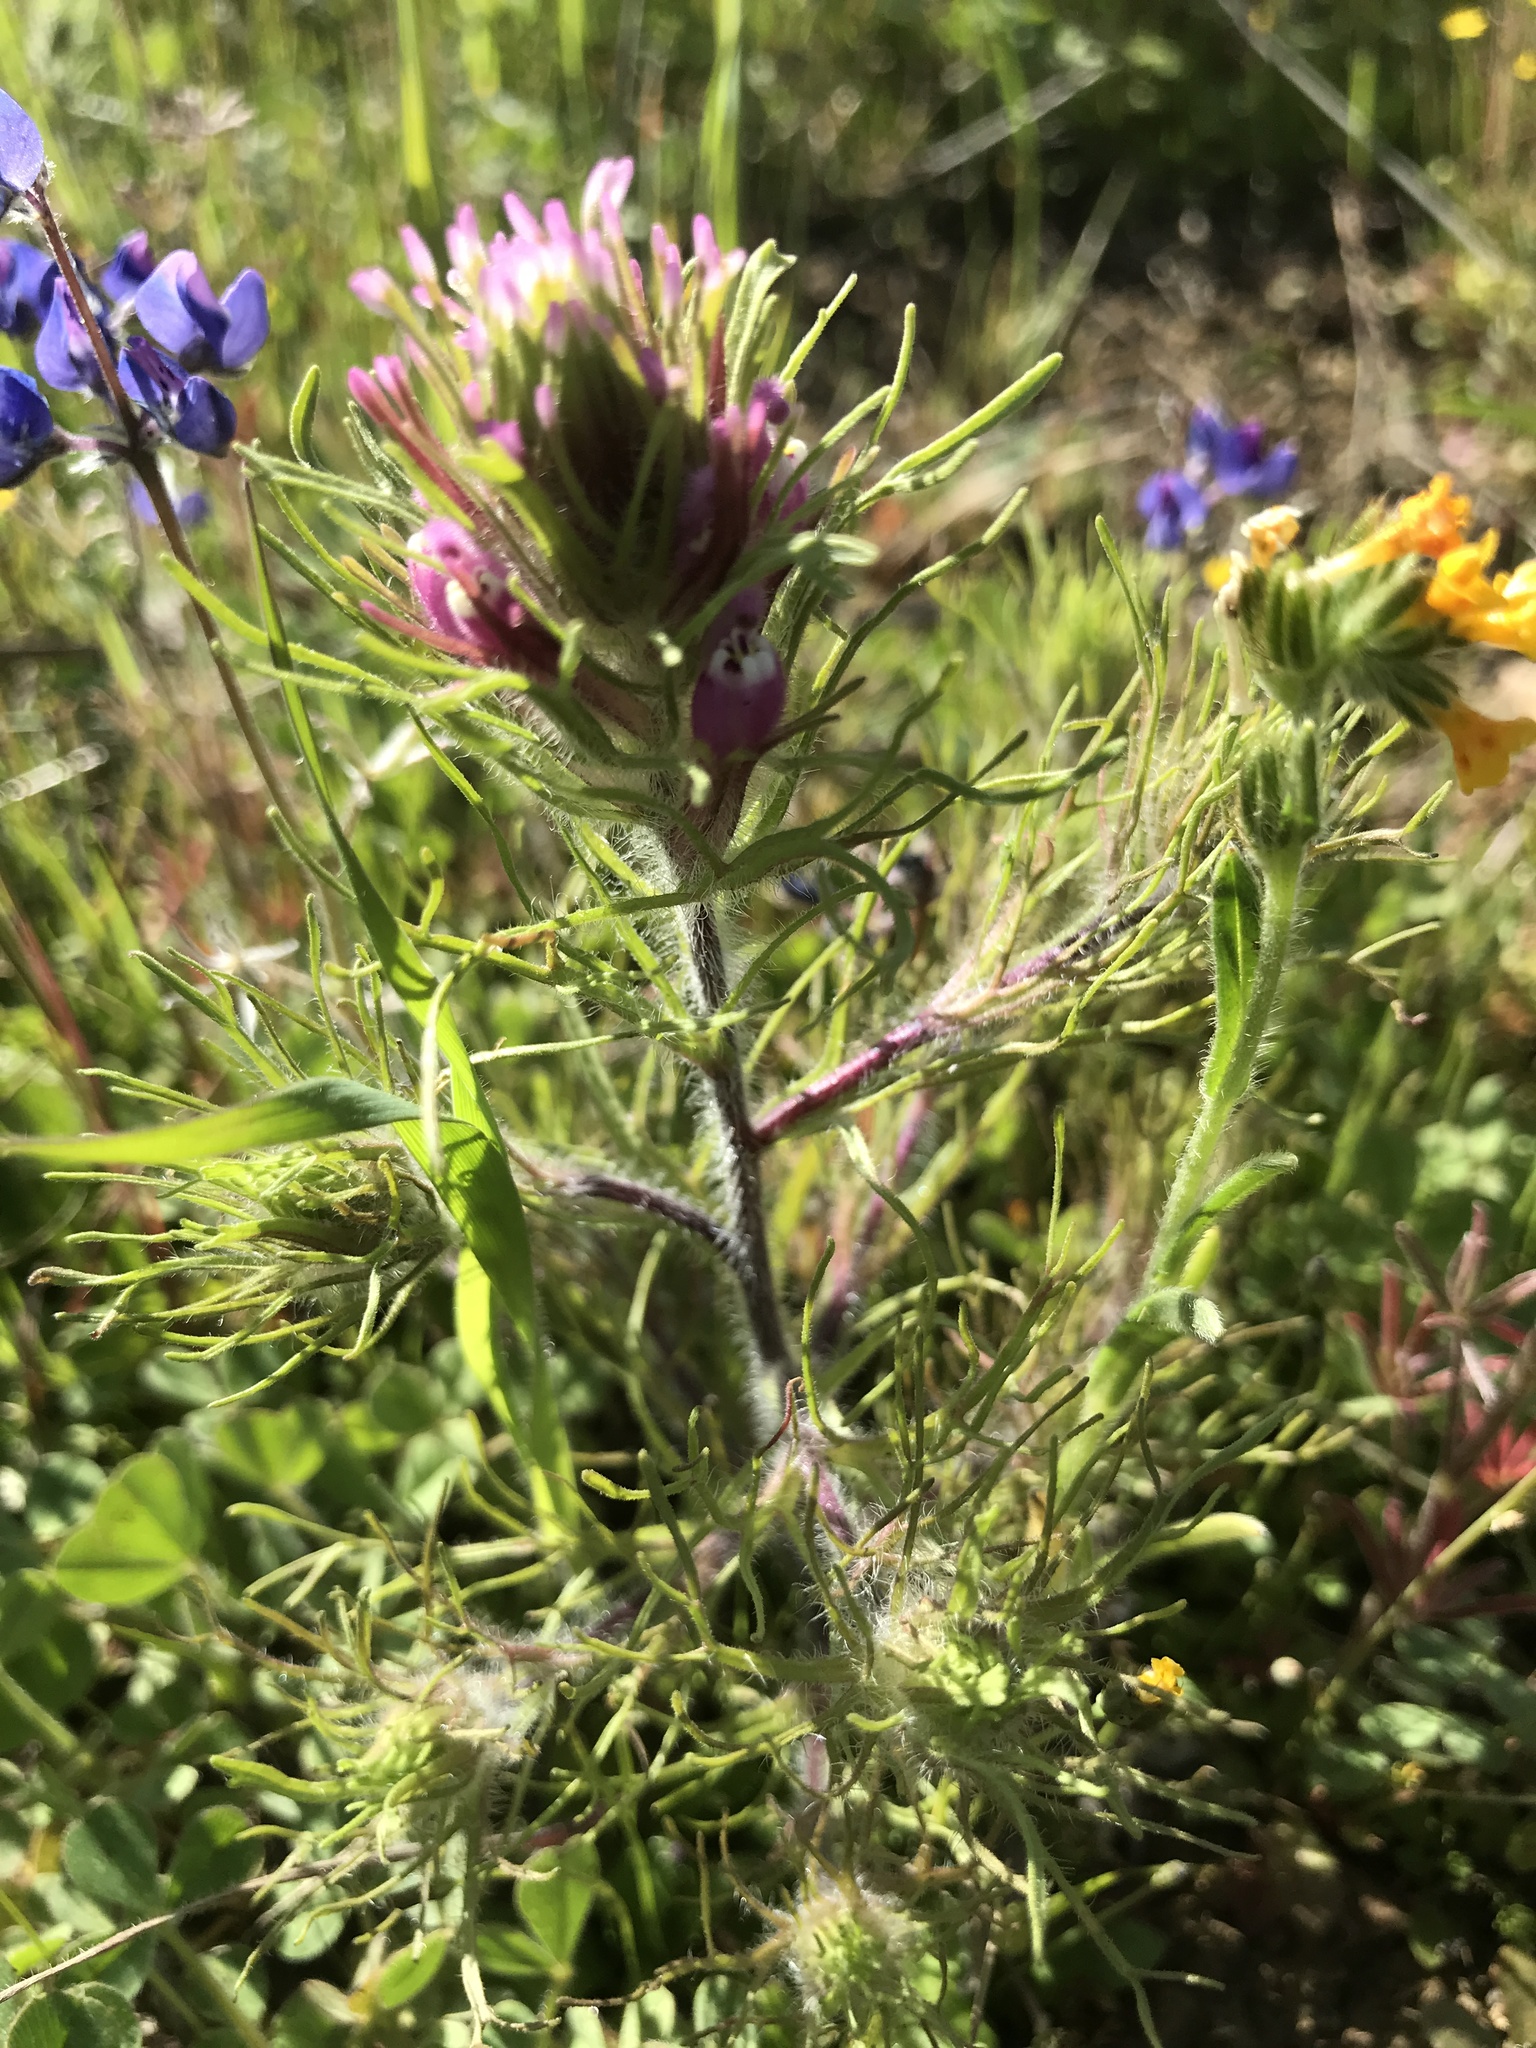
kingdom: Plantae
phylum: Tracheophyta
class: Magnoliopsida
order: Lamiales
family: Orobanchaceae
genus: Castilleja
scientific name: Castilleja exserta
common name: Purple owl-clover
